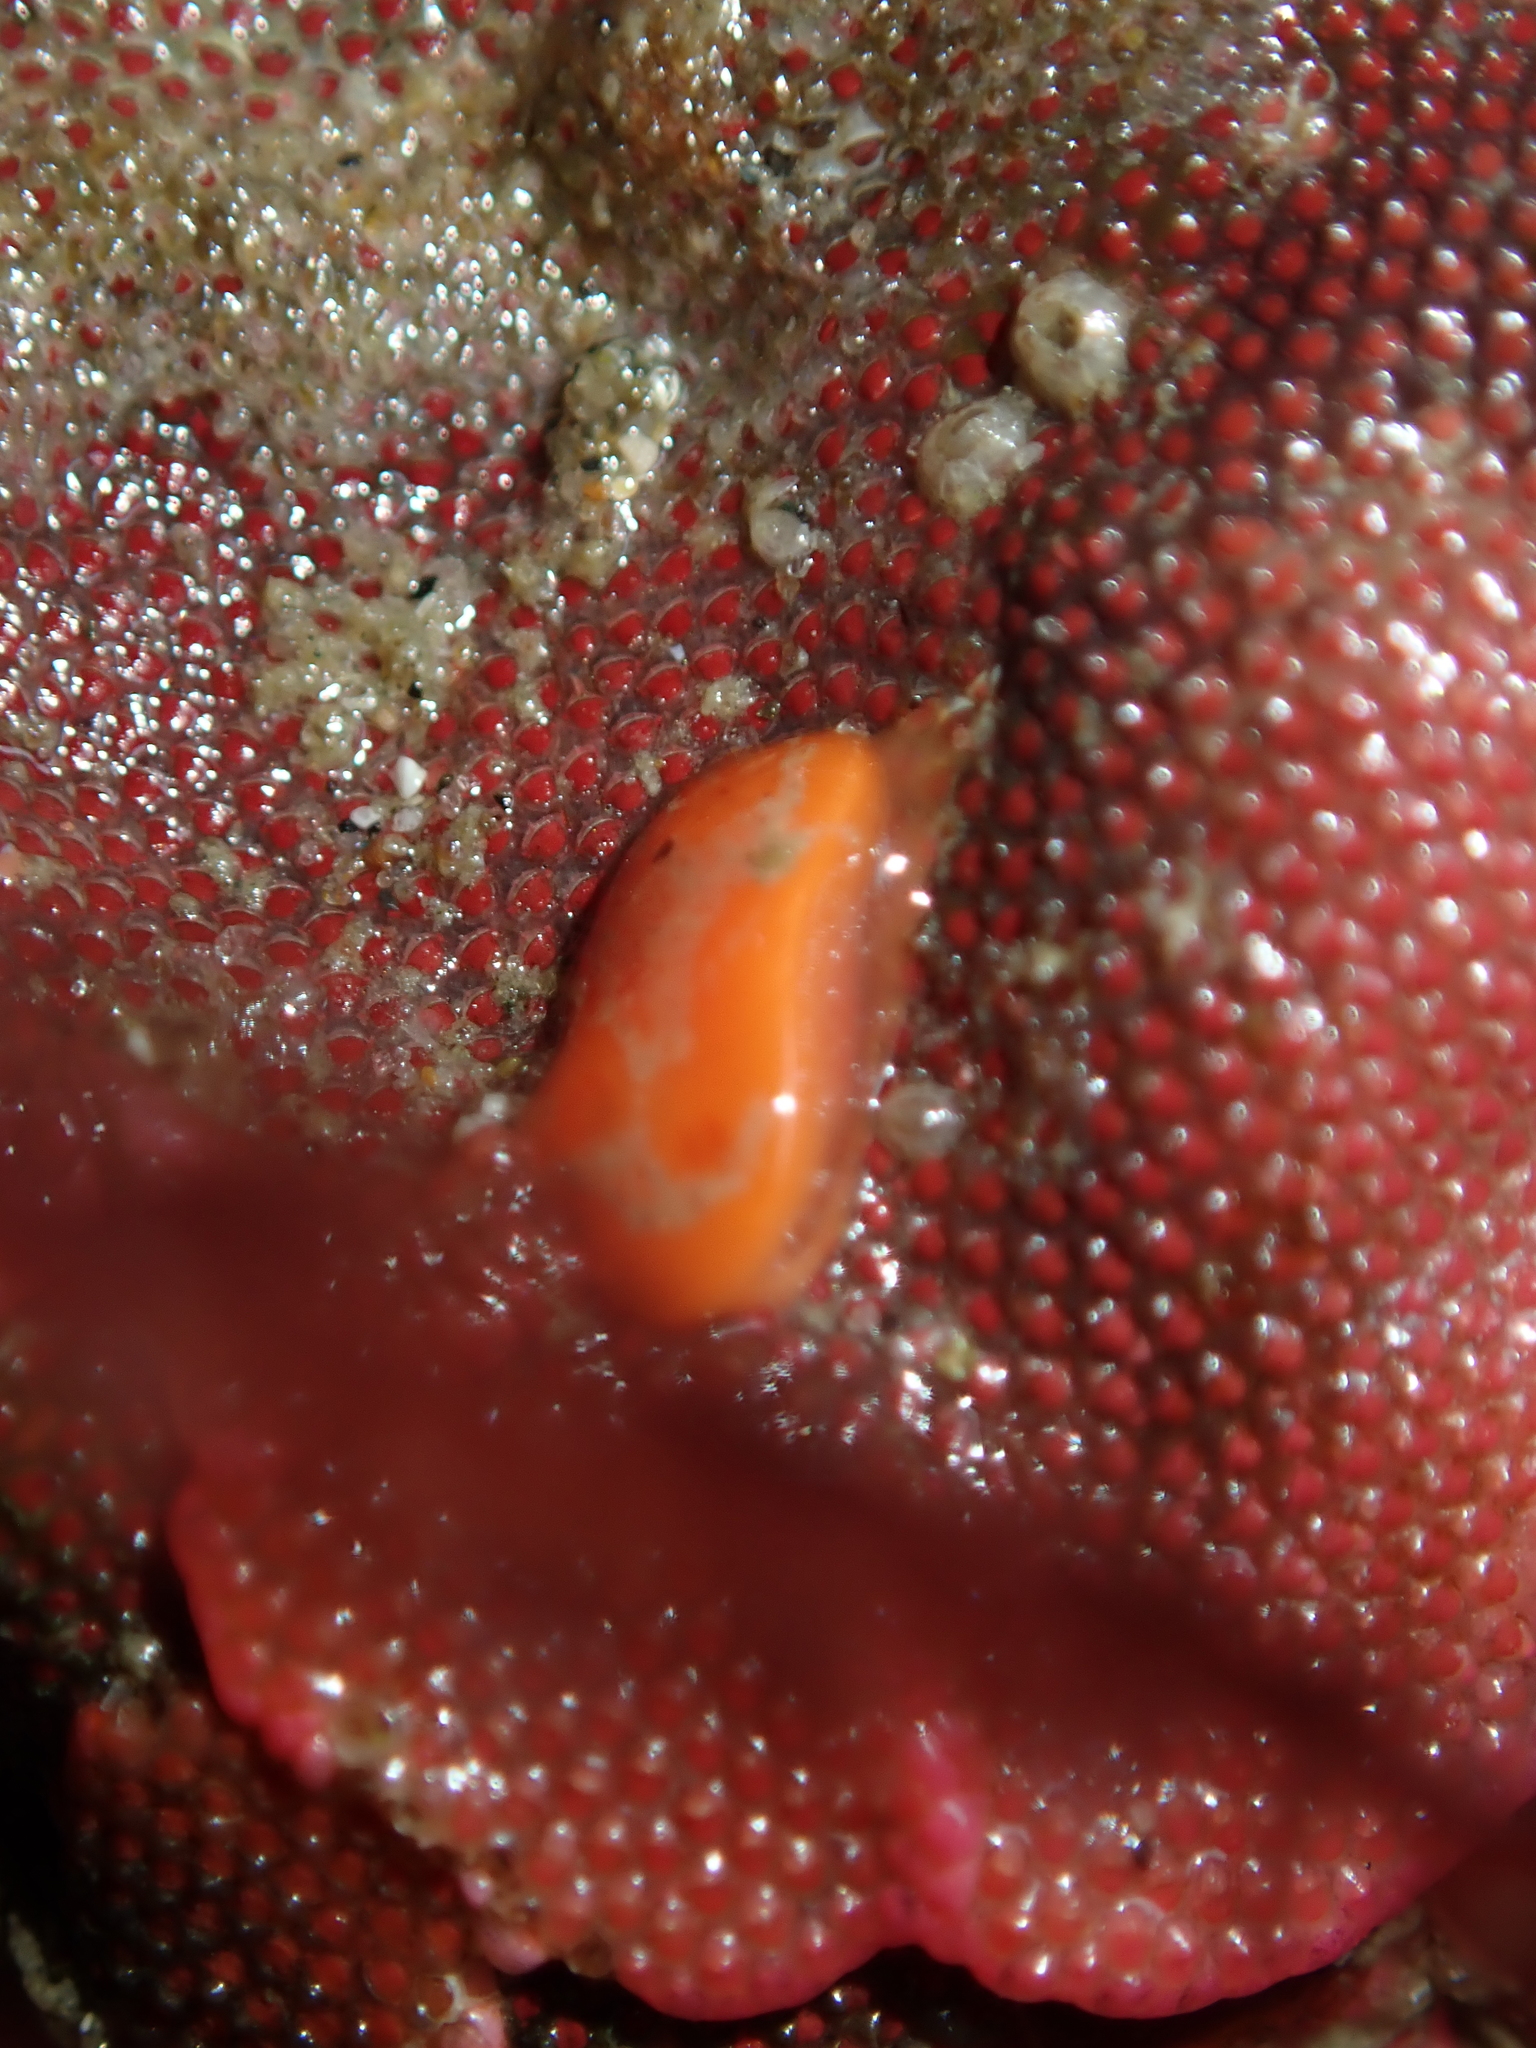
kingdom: Animalia
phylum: Mollusca
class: Gastropoda
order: Nudibranchia
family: Cadlinidae
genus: Aldisa
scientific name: Aldisa sanguinea
